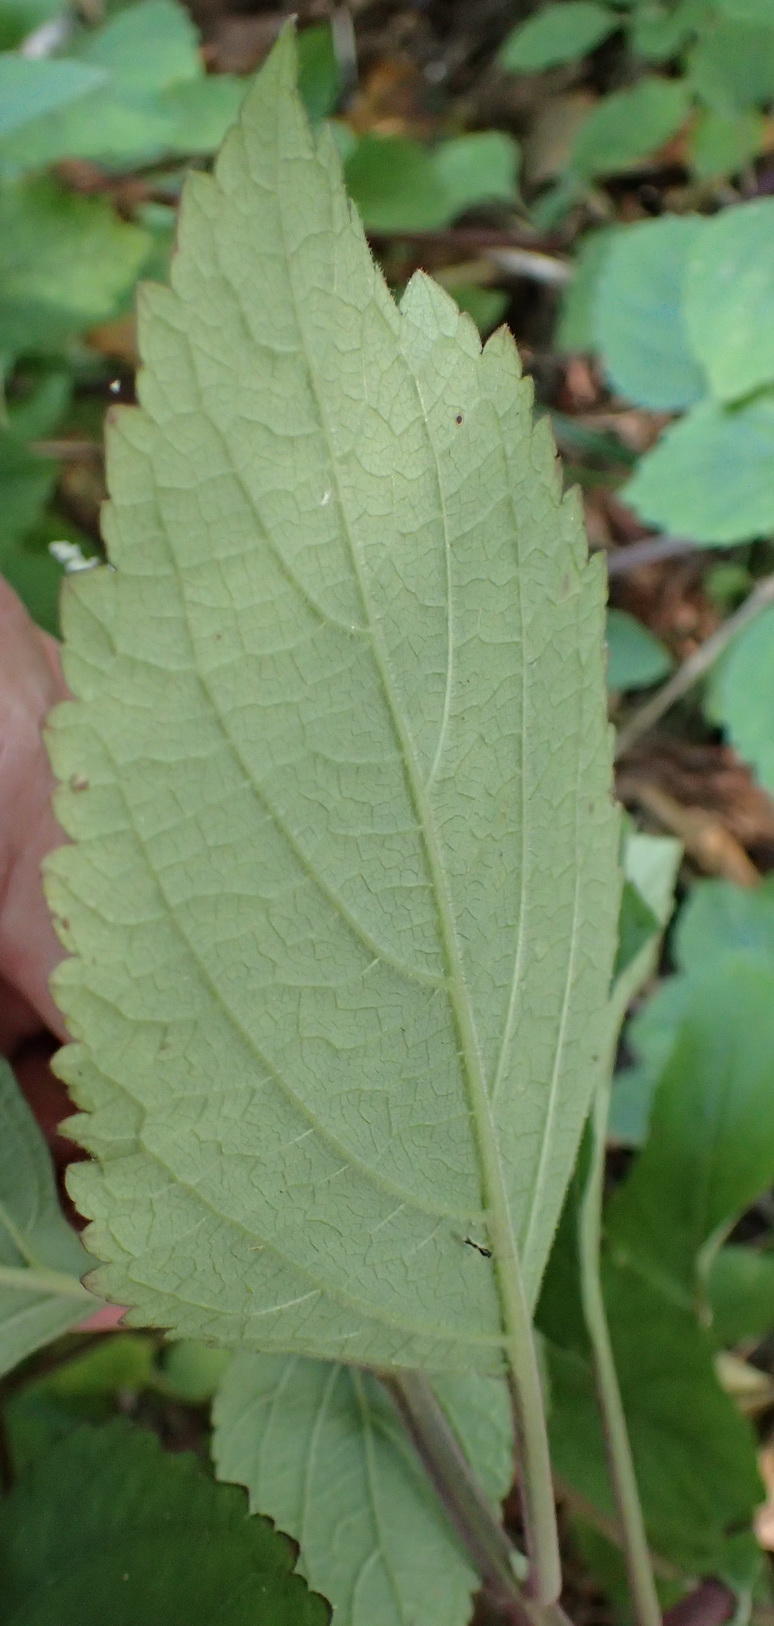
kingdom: Plantae
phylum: Tracheophyta
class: Magnoliopsida
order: Lamiales
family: Lamiaceae
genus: Plectranthus
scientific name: Plectranthus fruticosus
